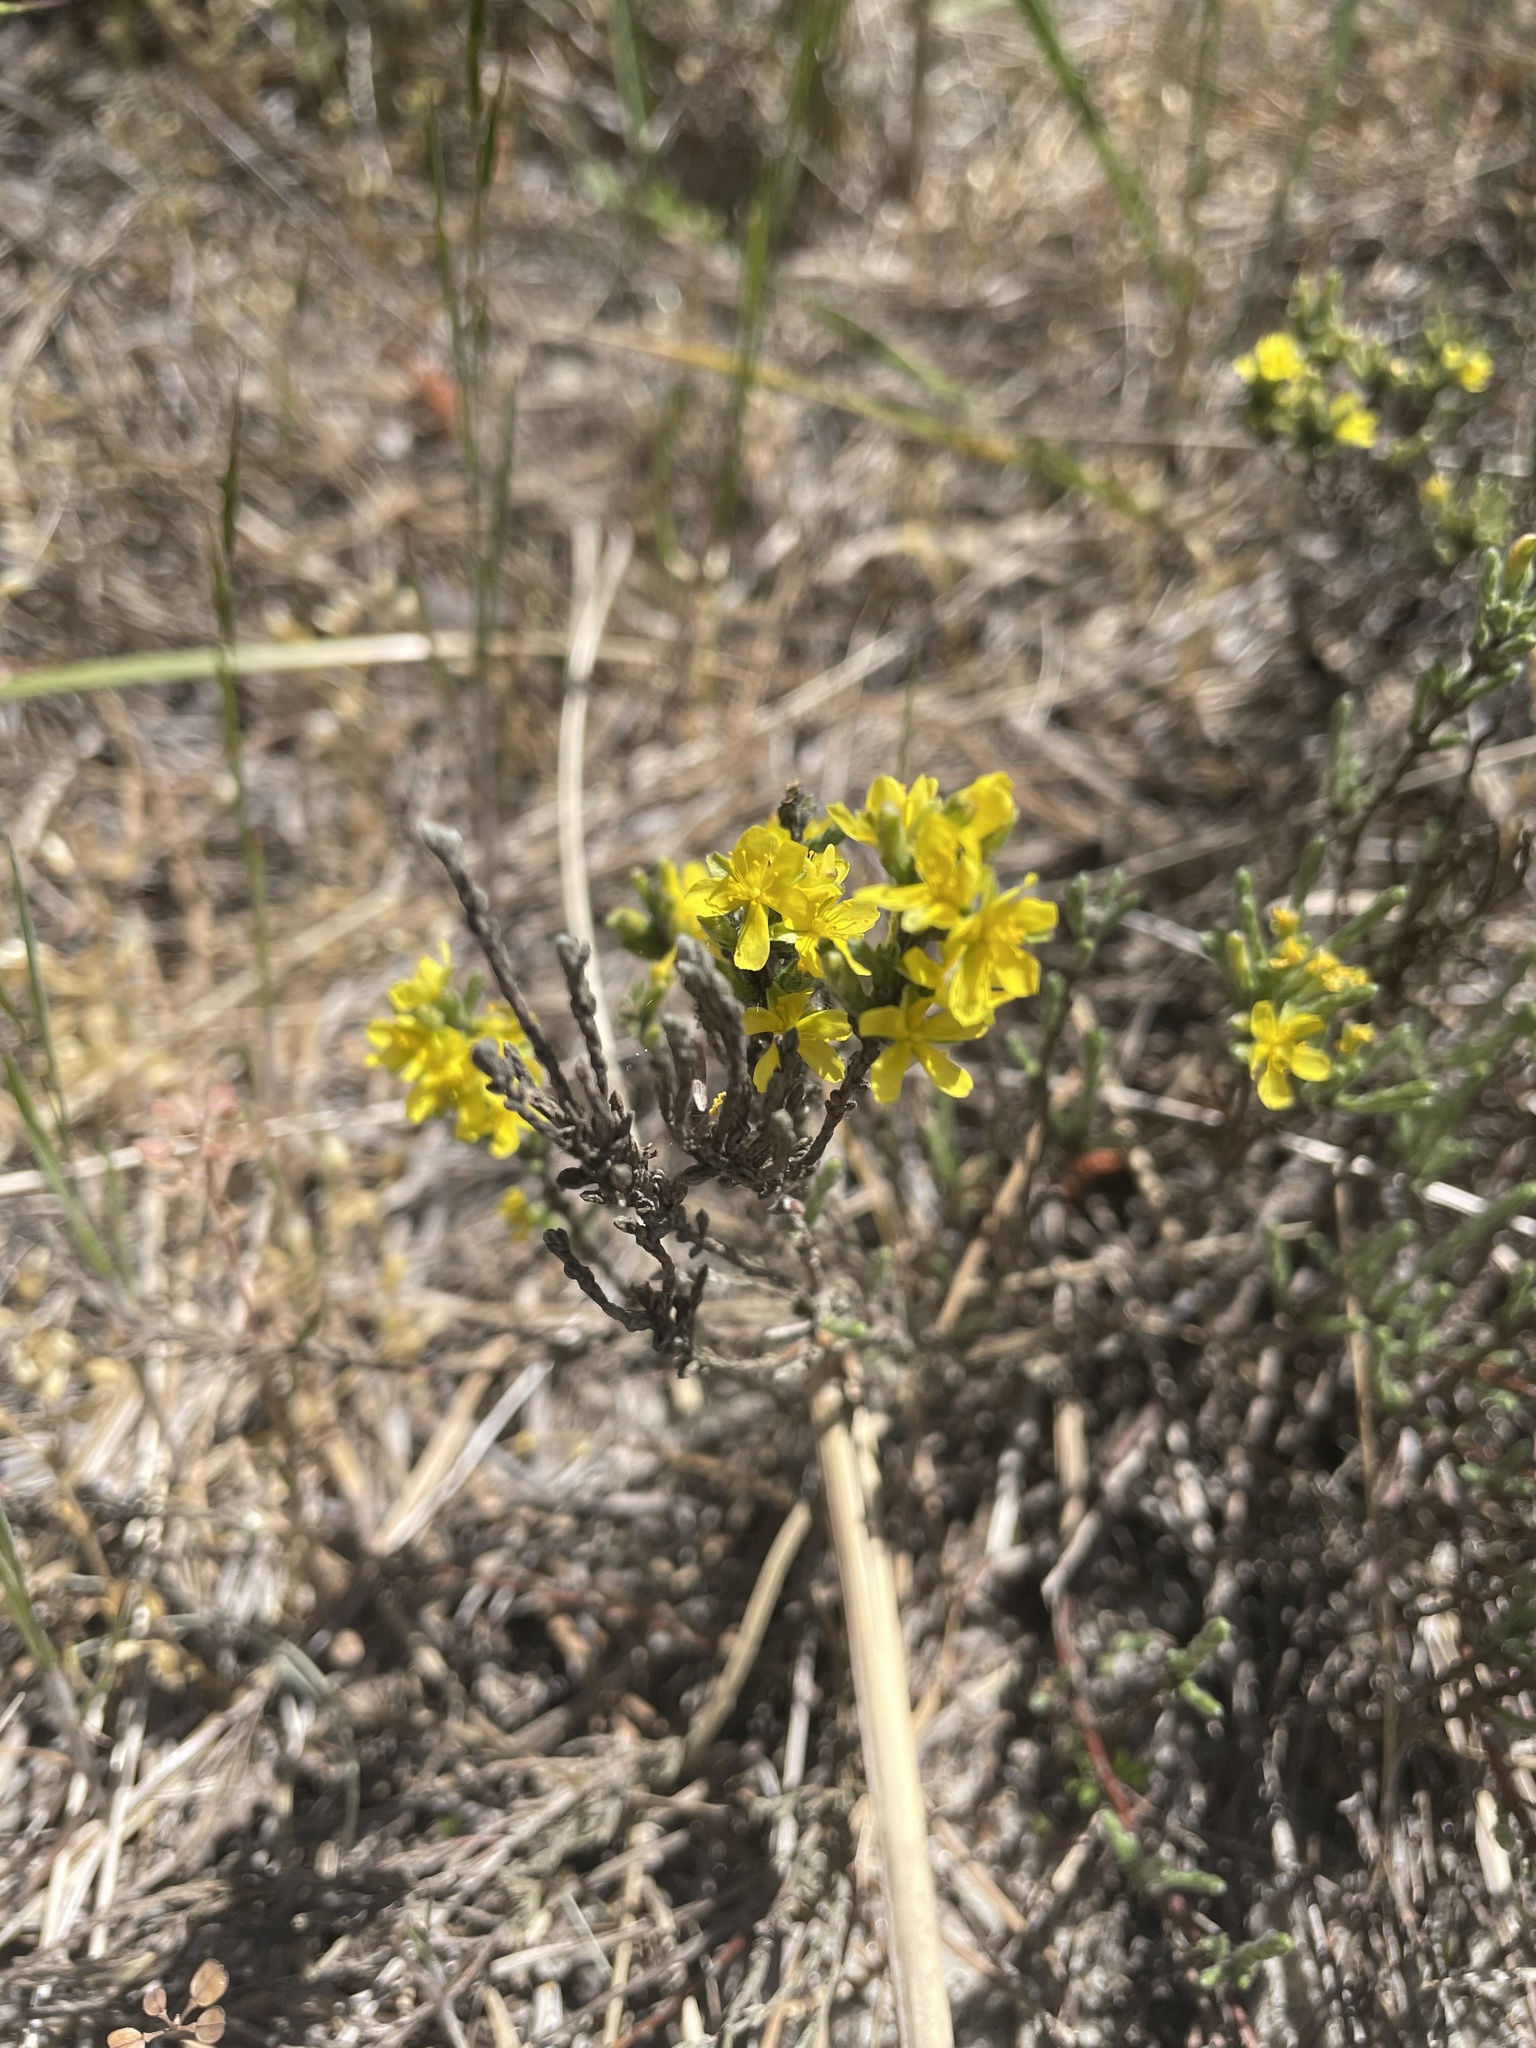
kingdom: Plantae
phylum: Tracheophyta
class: Magnoliopsida
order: Malvales
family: Cistaceae
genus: Hudsonia
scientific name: Hudsonia tomentosa
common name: Beach-heath
